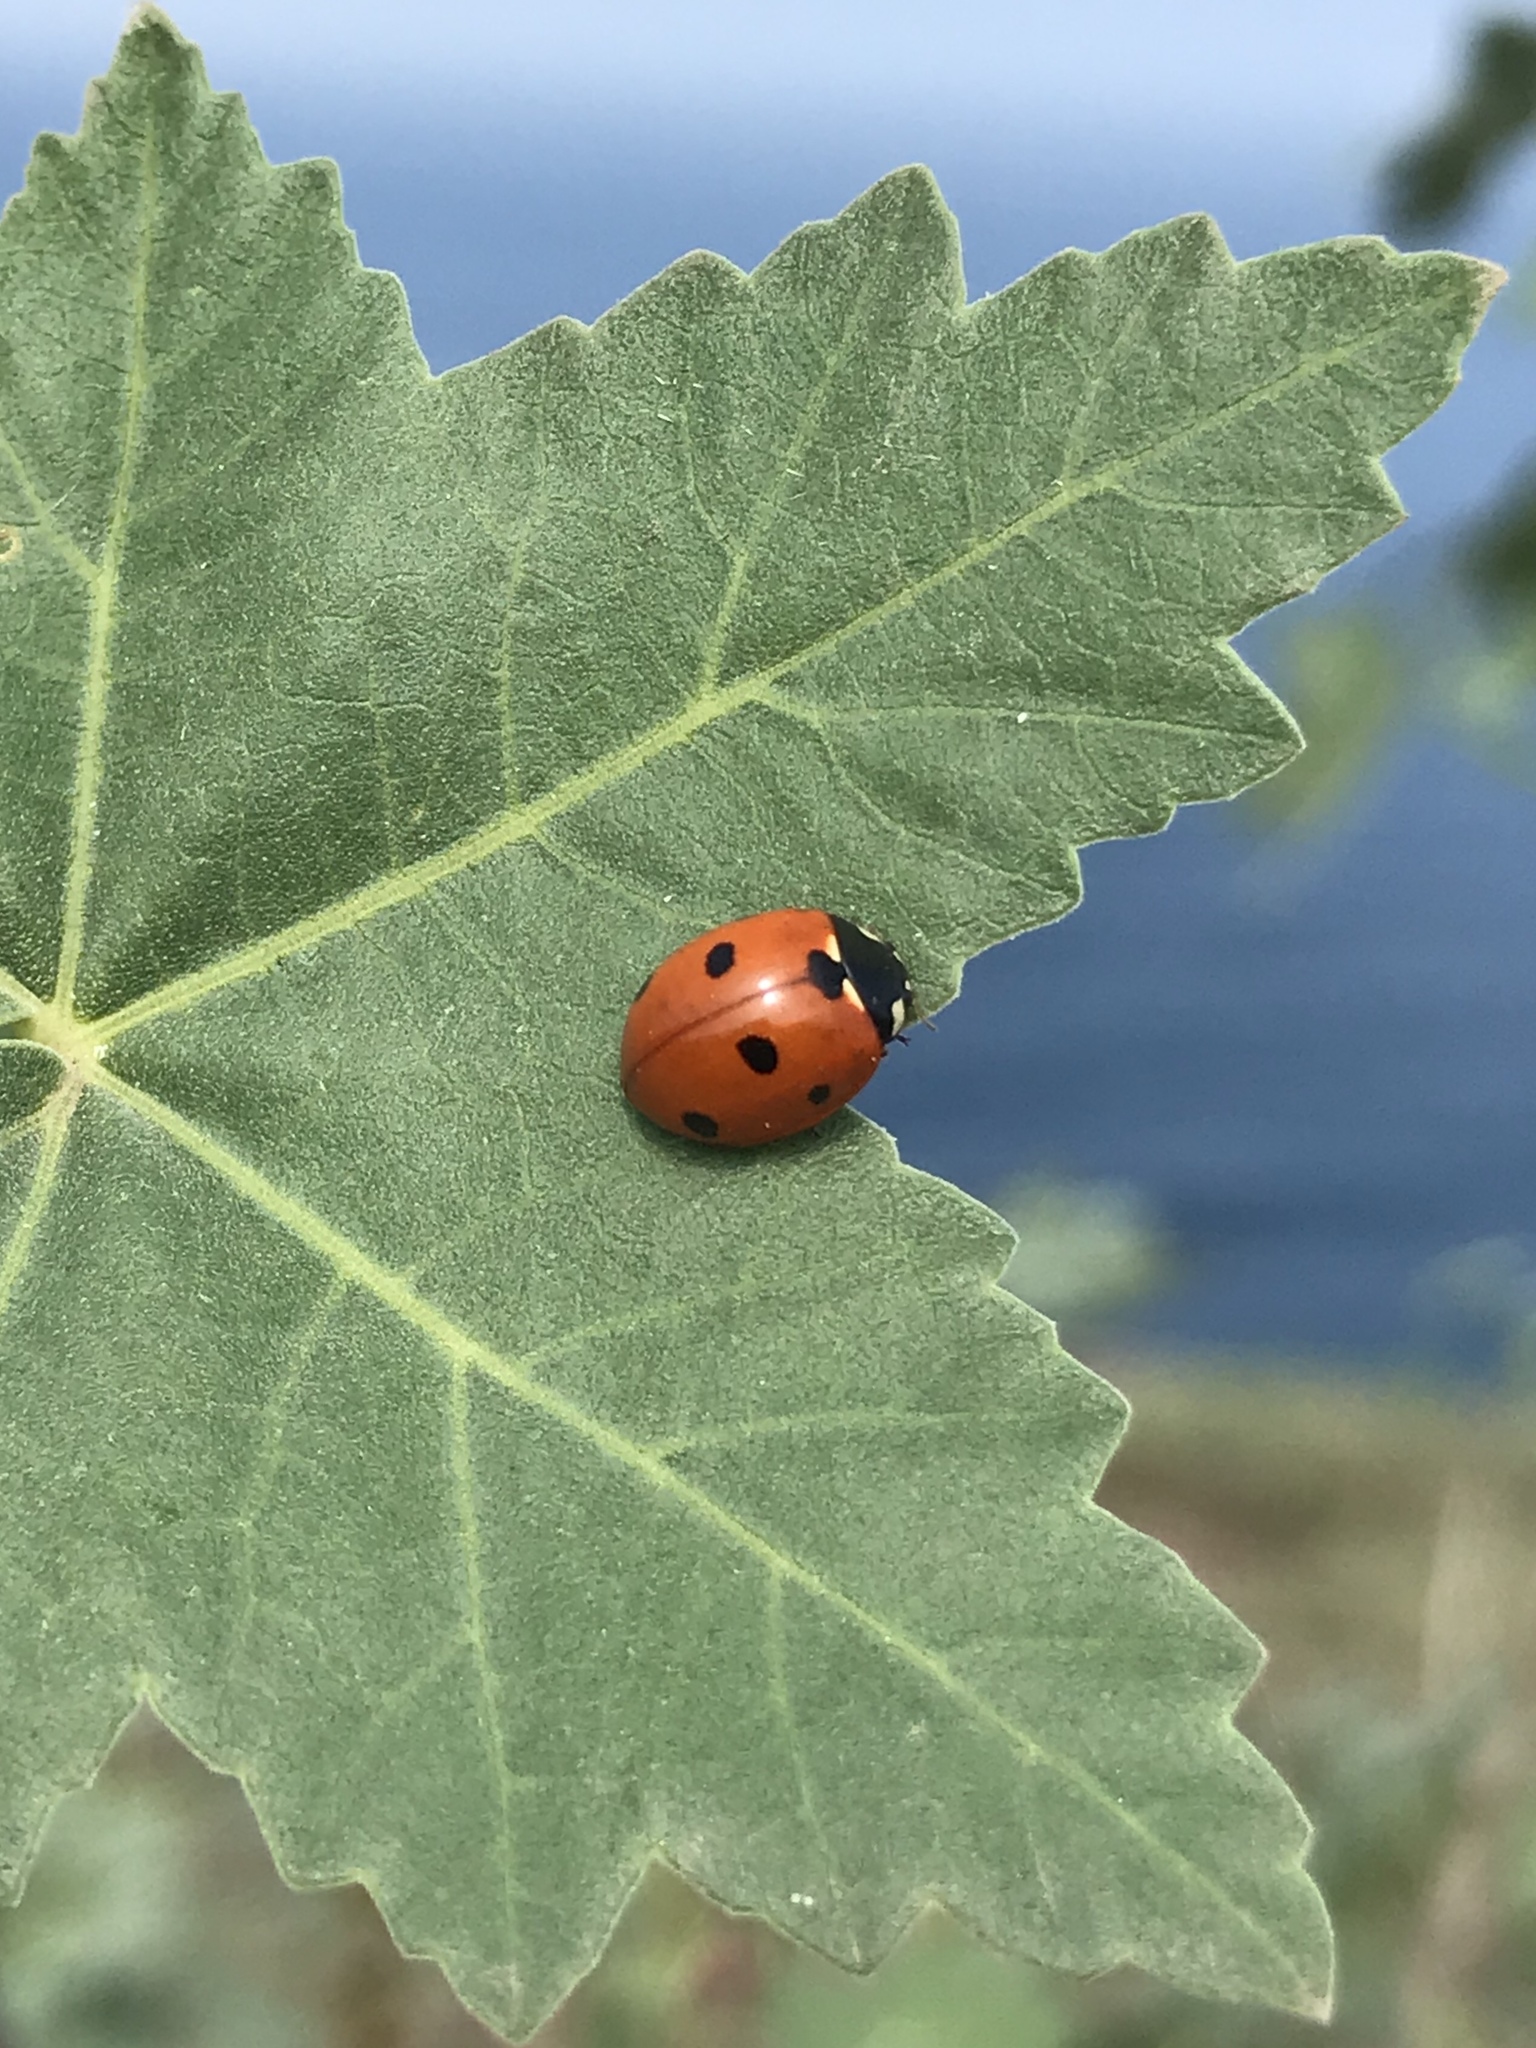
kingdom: Animalia
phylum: Arthropoda
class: Insecta
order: Coleoptera
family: Coccinellidae
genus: Coccinella
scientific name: Coccinella septempunctata
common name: Sevenspotted lady beetle
